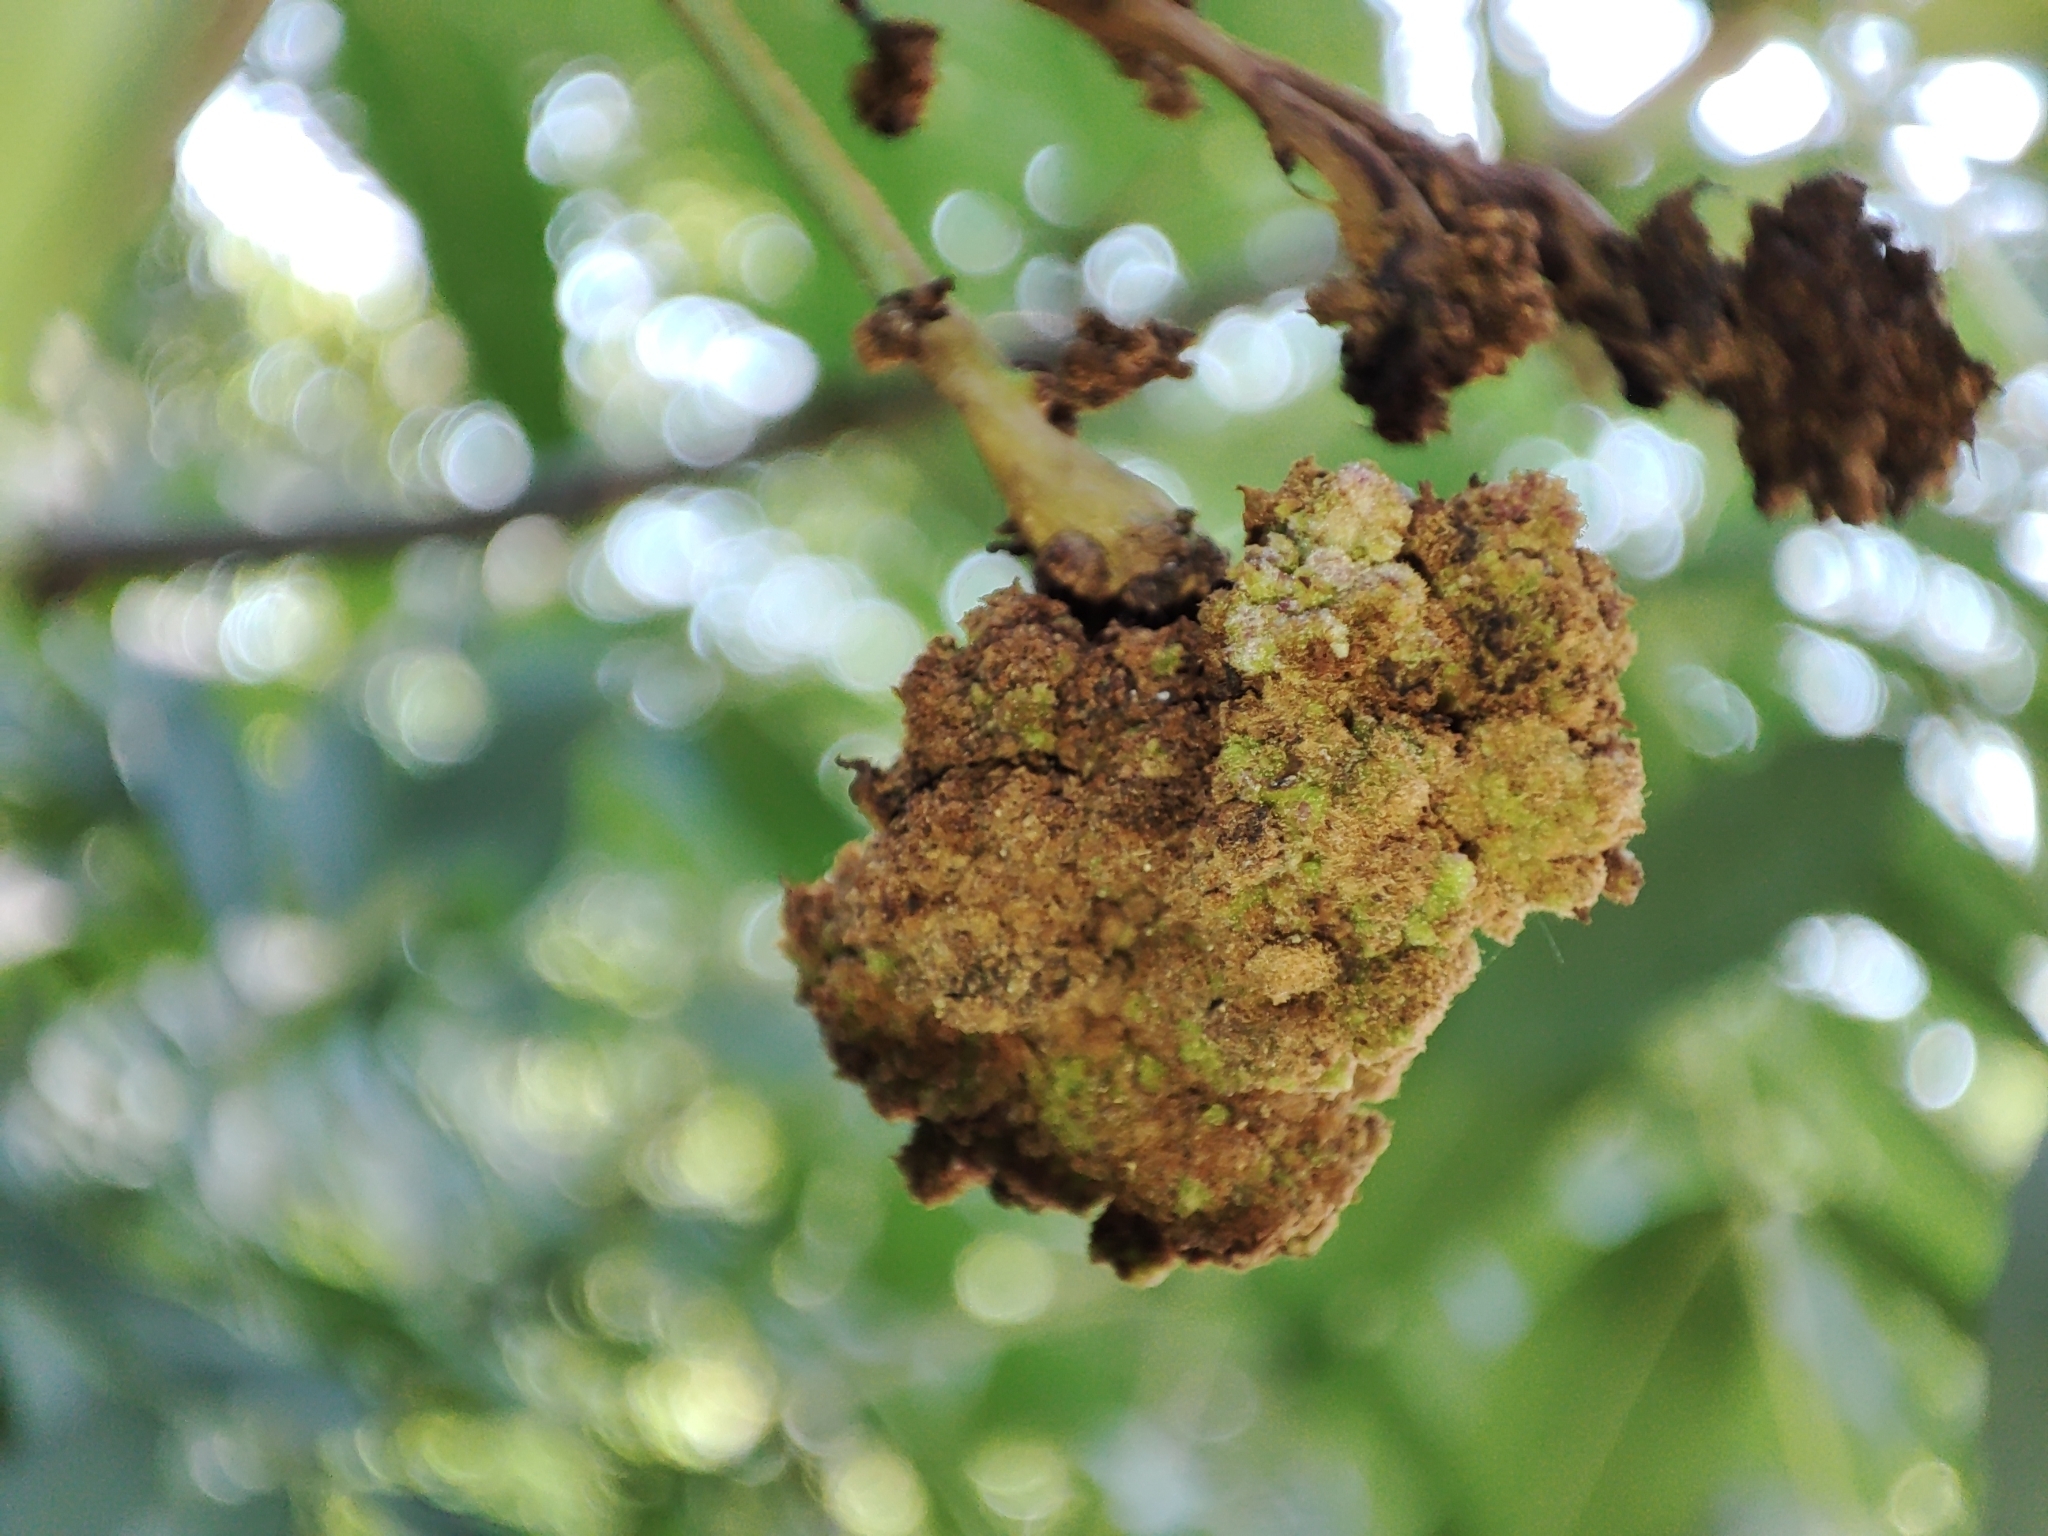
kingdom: Animalia
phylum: Arthropoda
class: Arachnida
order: Trombidiformes
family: Eriophyidae
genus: Aceria
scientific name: Aceria fraxinivora
